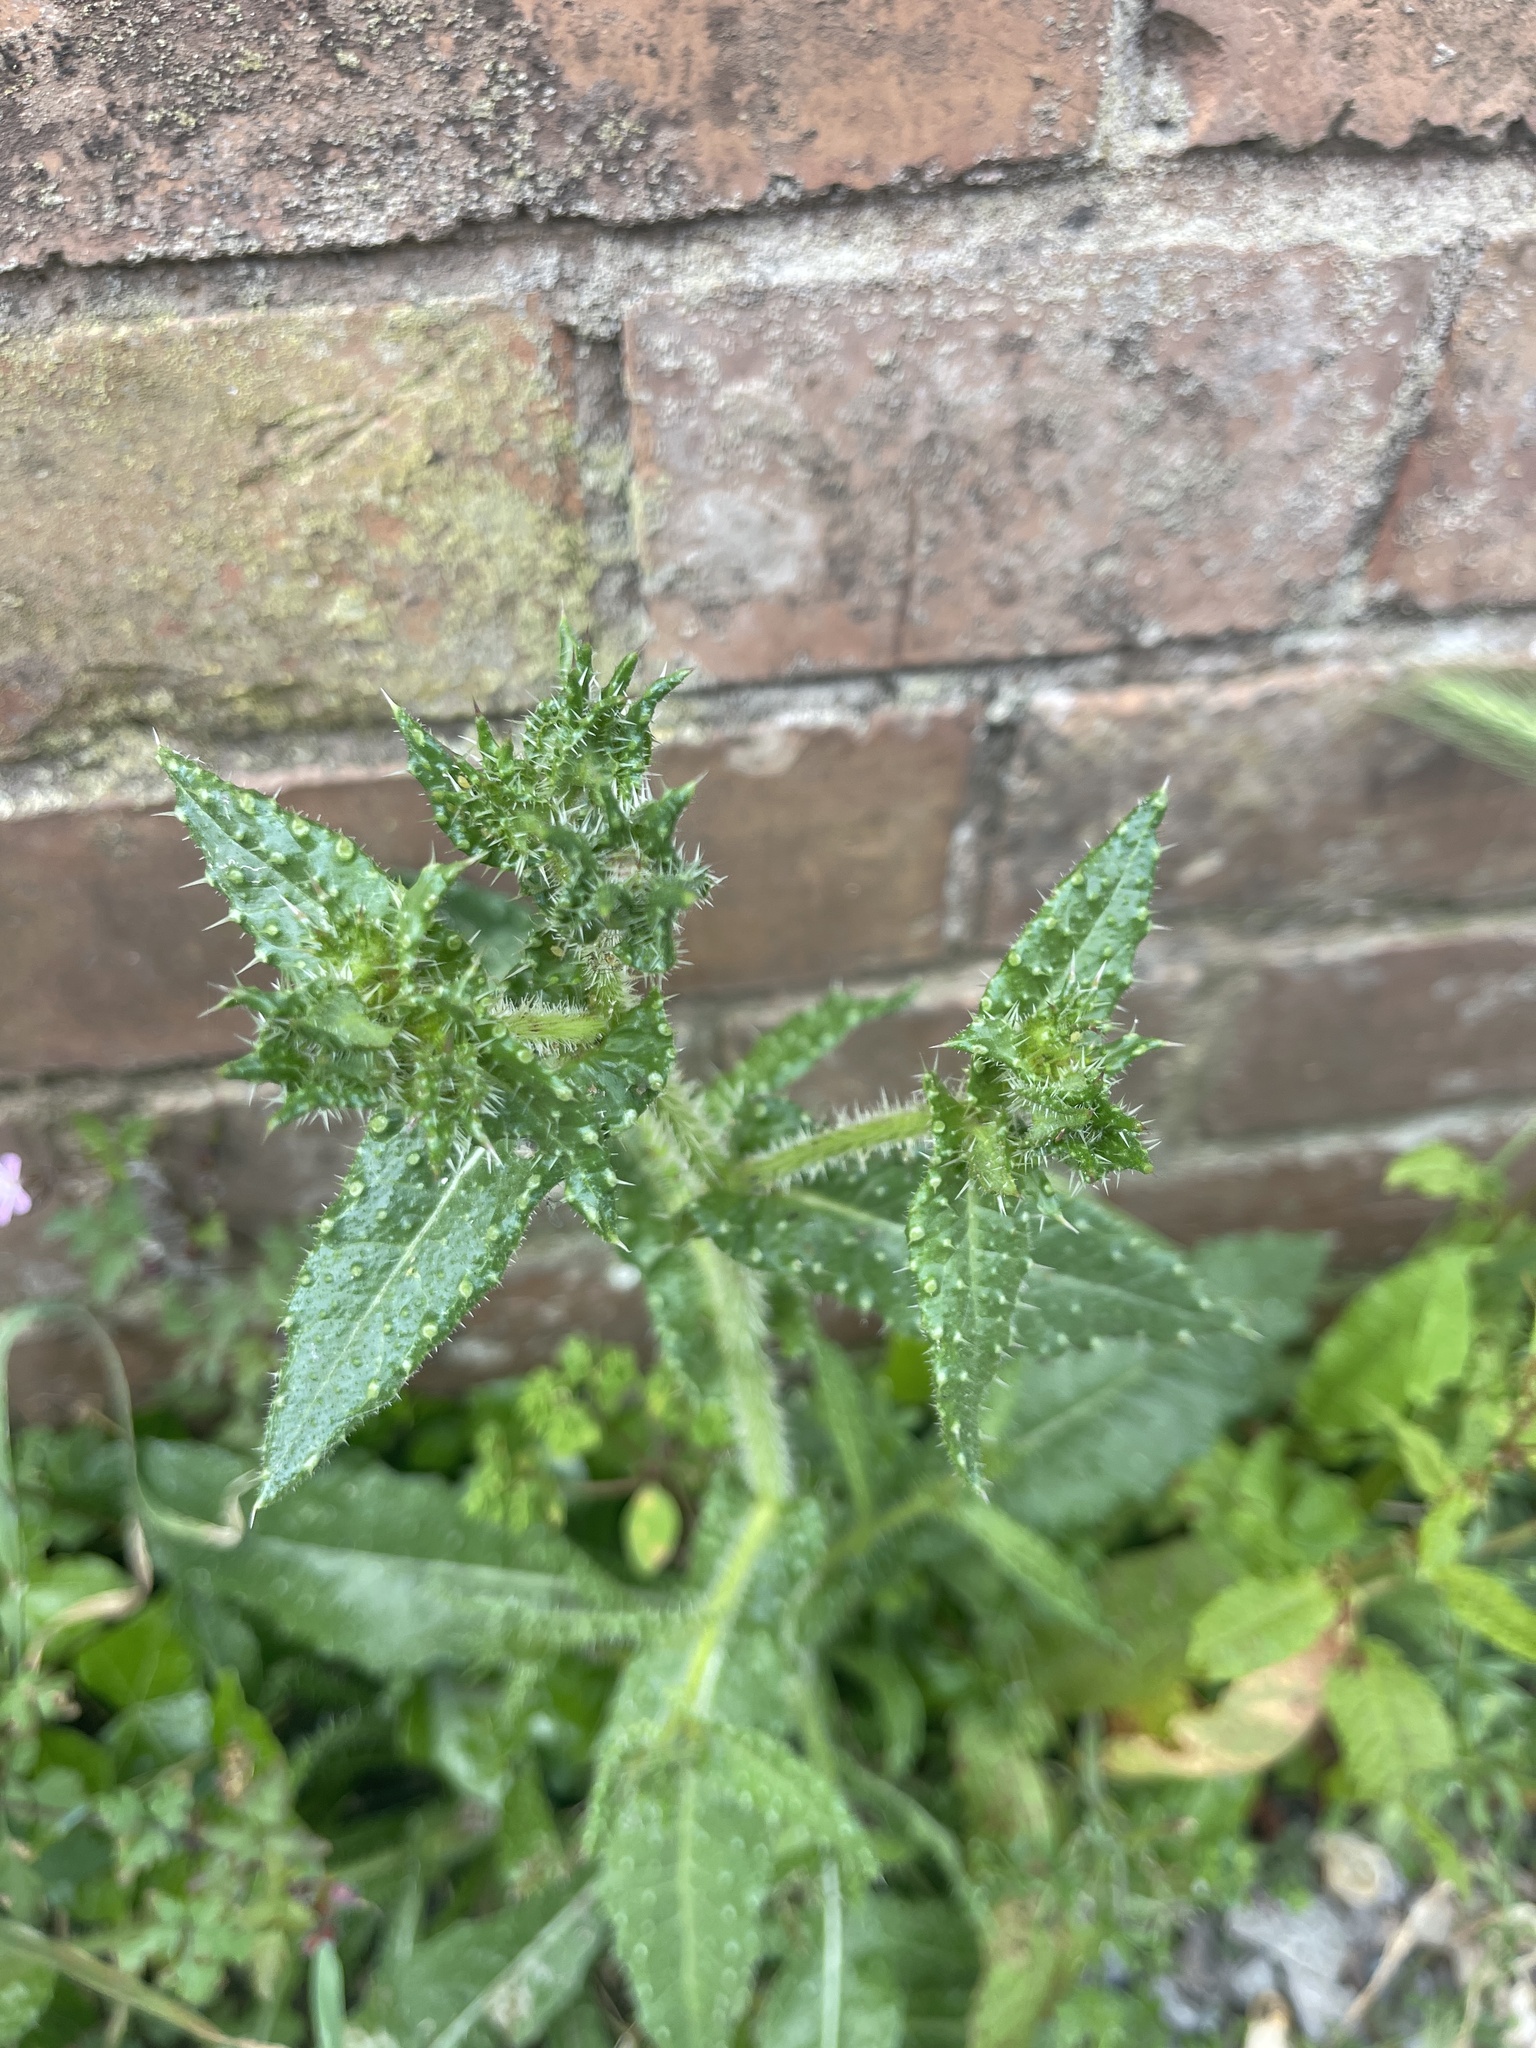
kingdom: Plantae
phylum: Tracheophyta
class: Magnoliopsida
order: Asterales
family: Asteraceae
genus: Helminthotheca
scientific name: Helminthotheca echioides
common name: Ox-tongue
